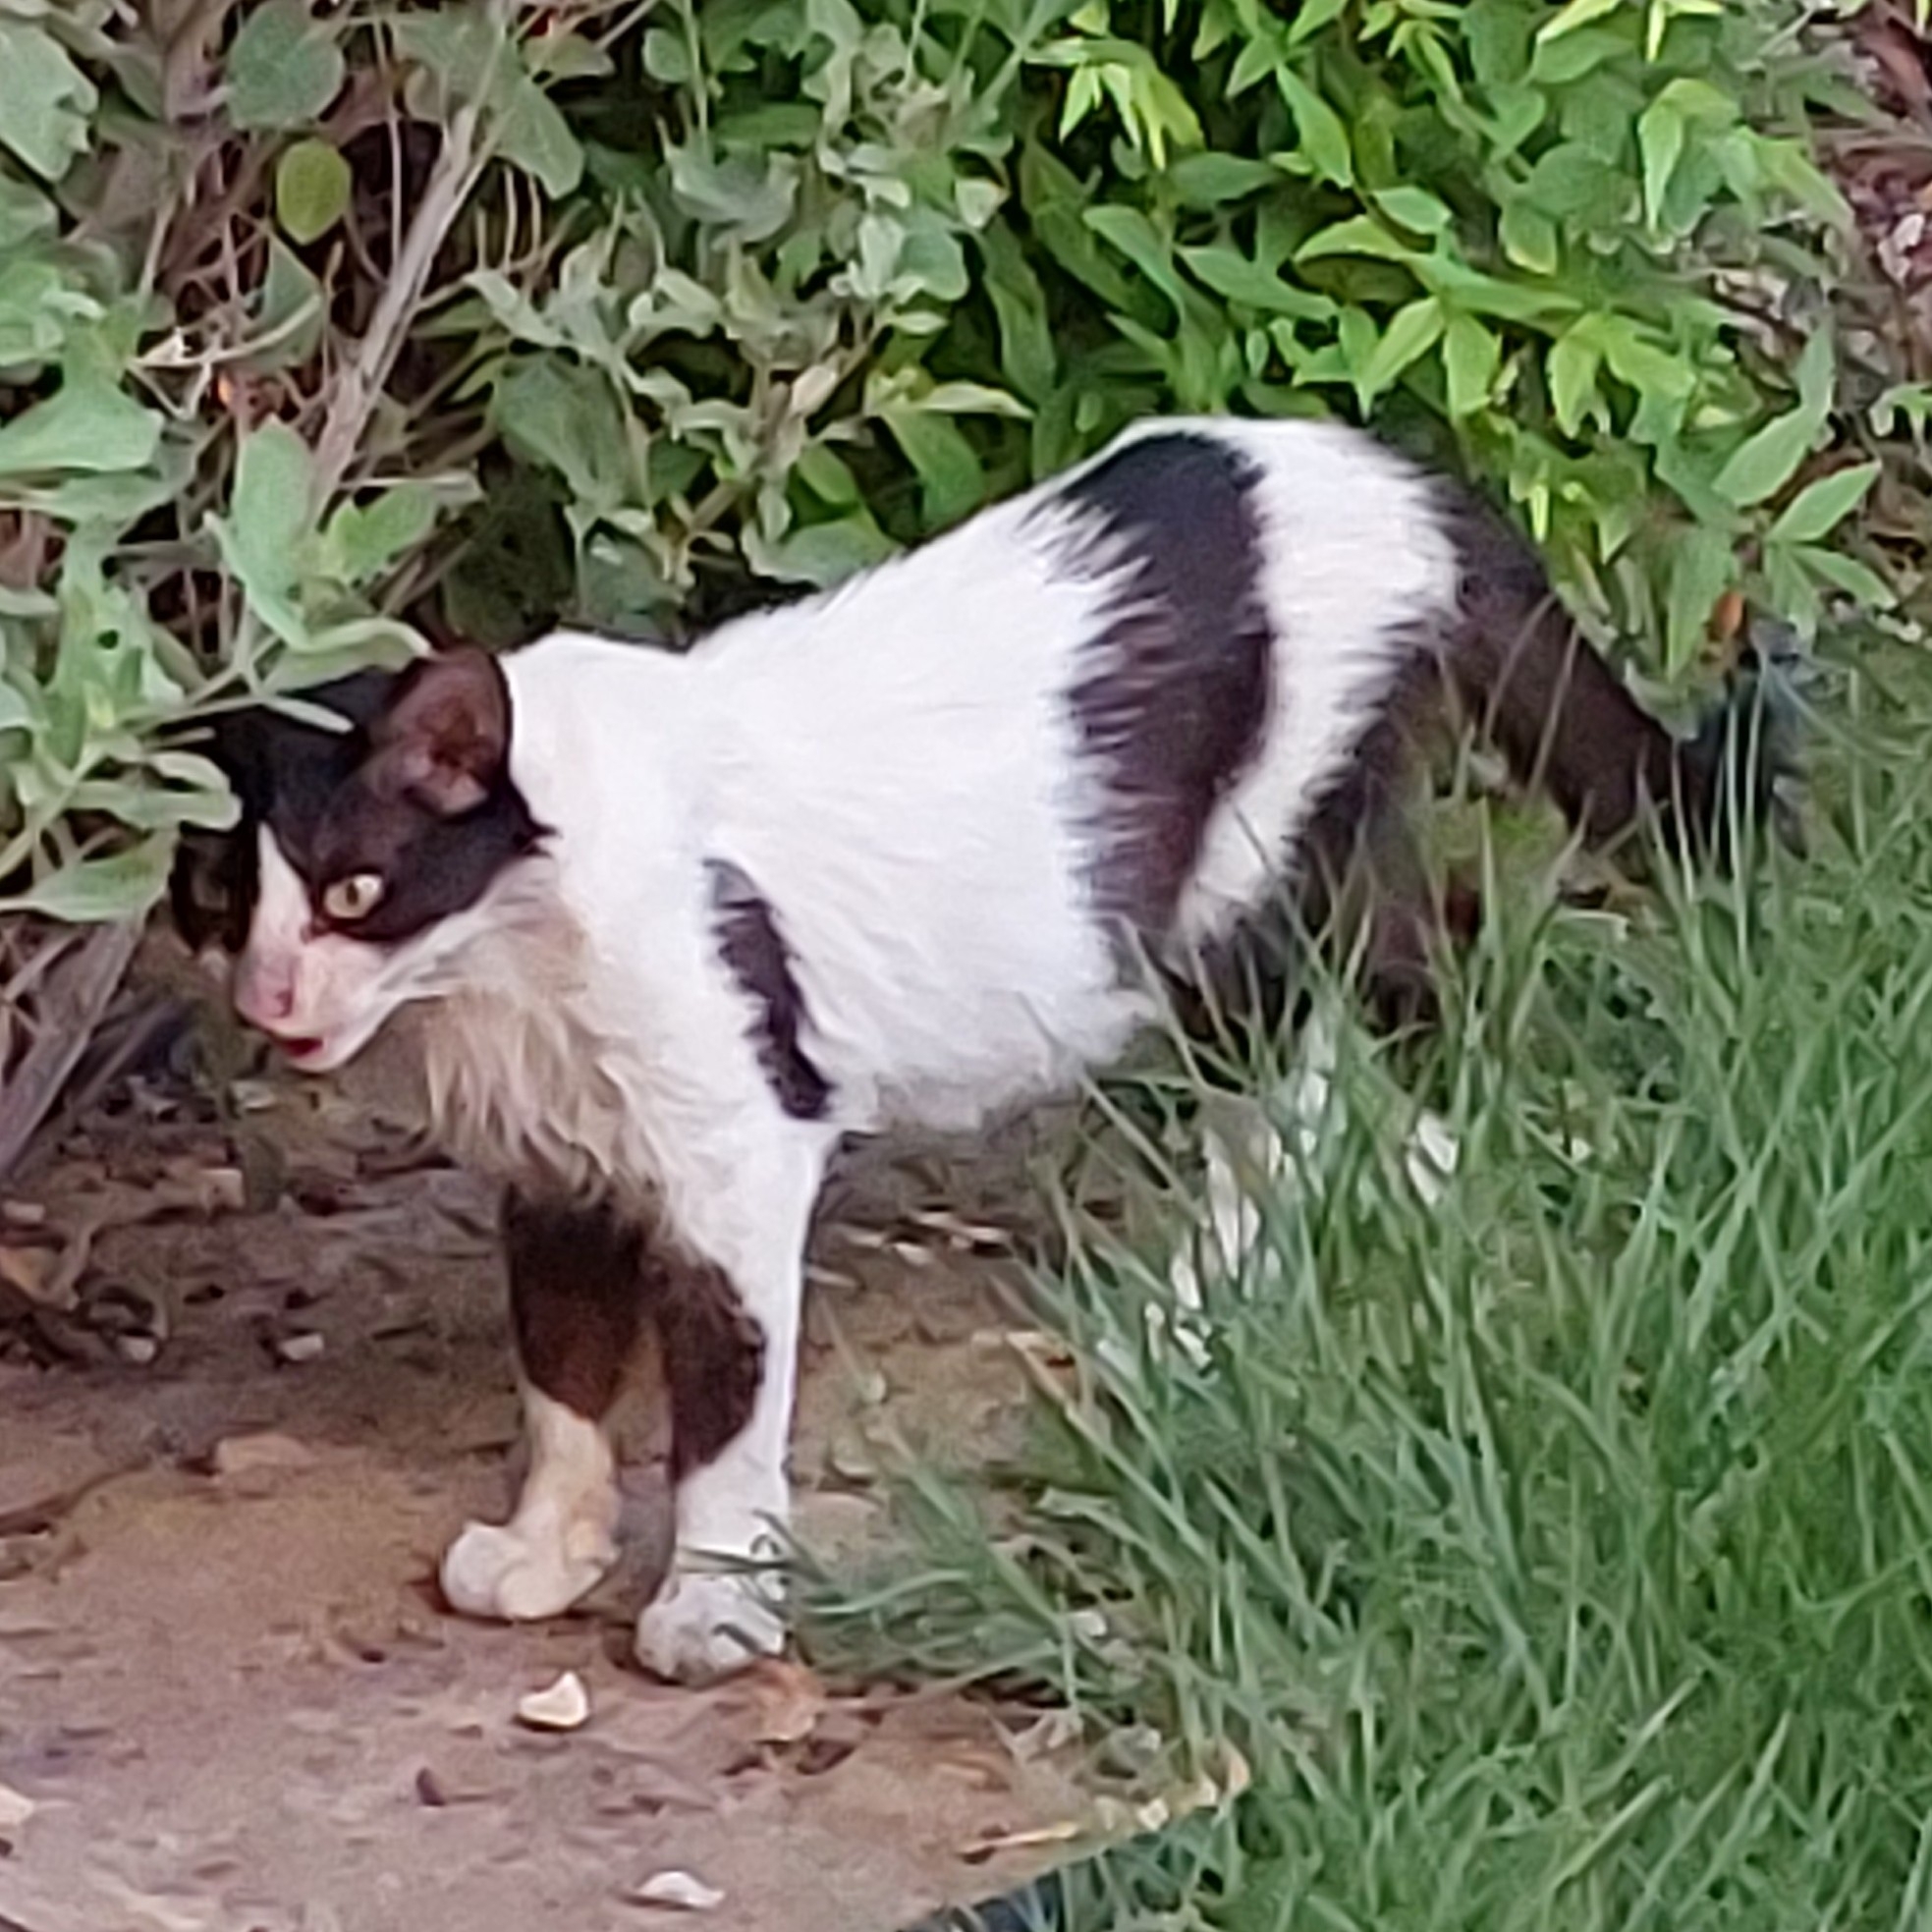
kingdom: Animalia
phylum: Chordata
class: Mammalia
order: Carnivora
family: Felidae
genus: Felis
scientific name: Felis catus
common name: Domestic cat
